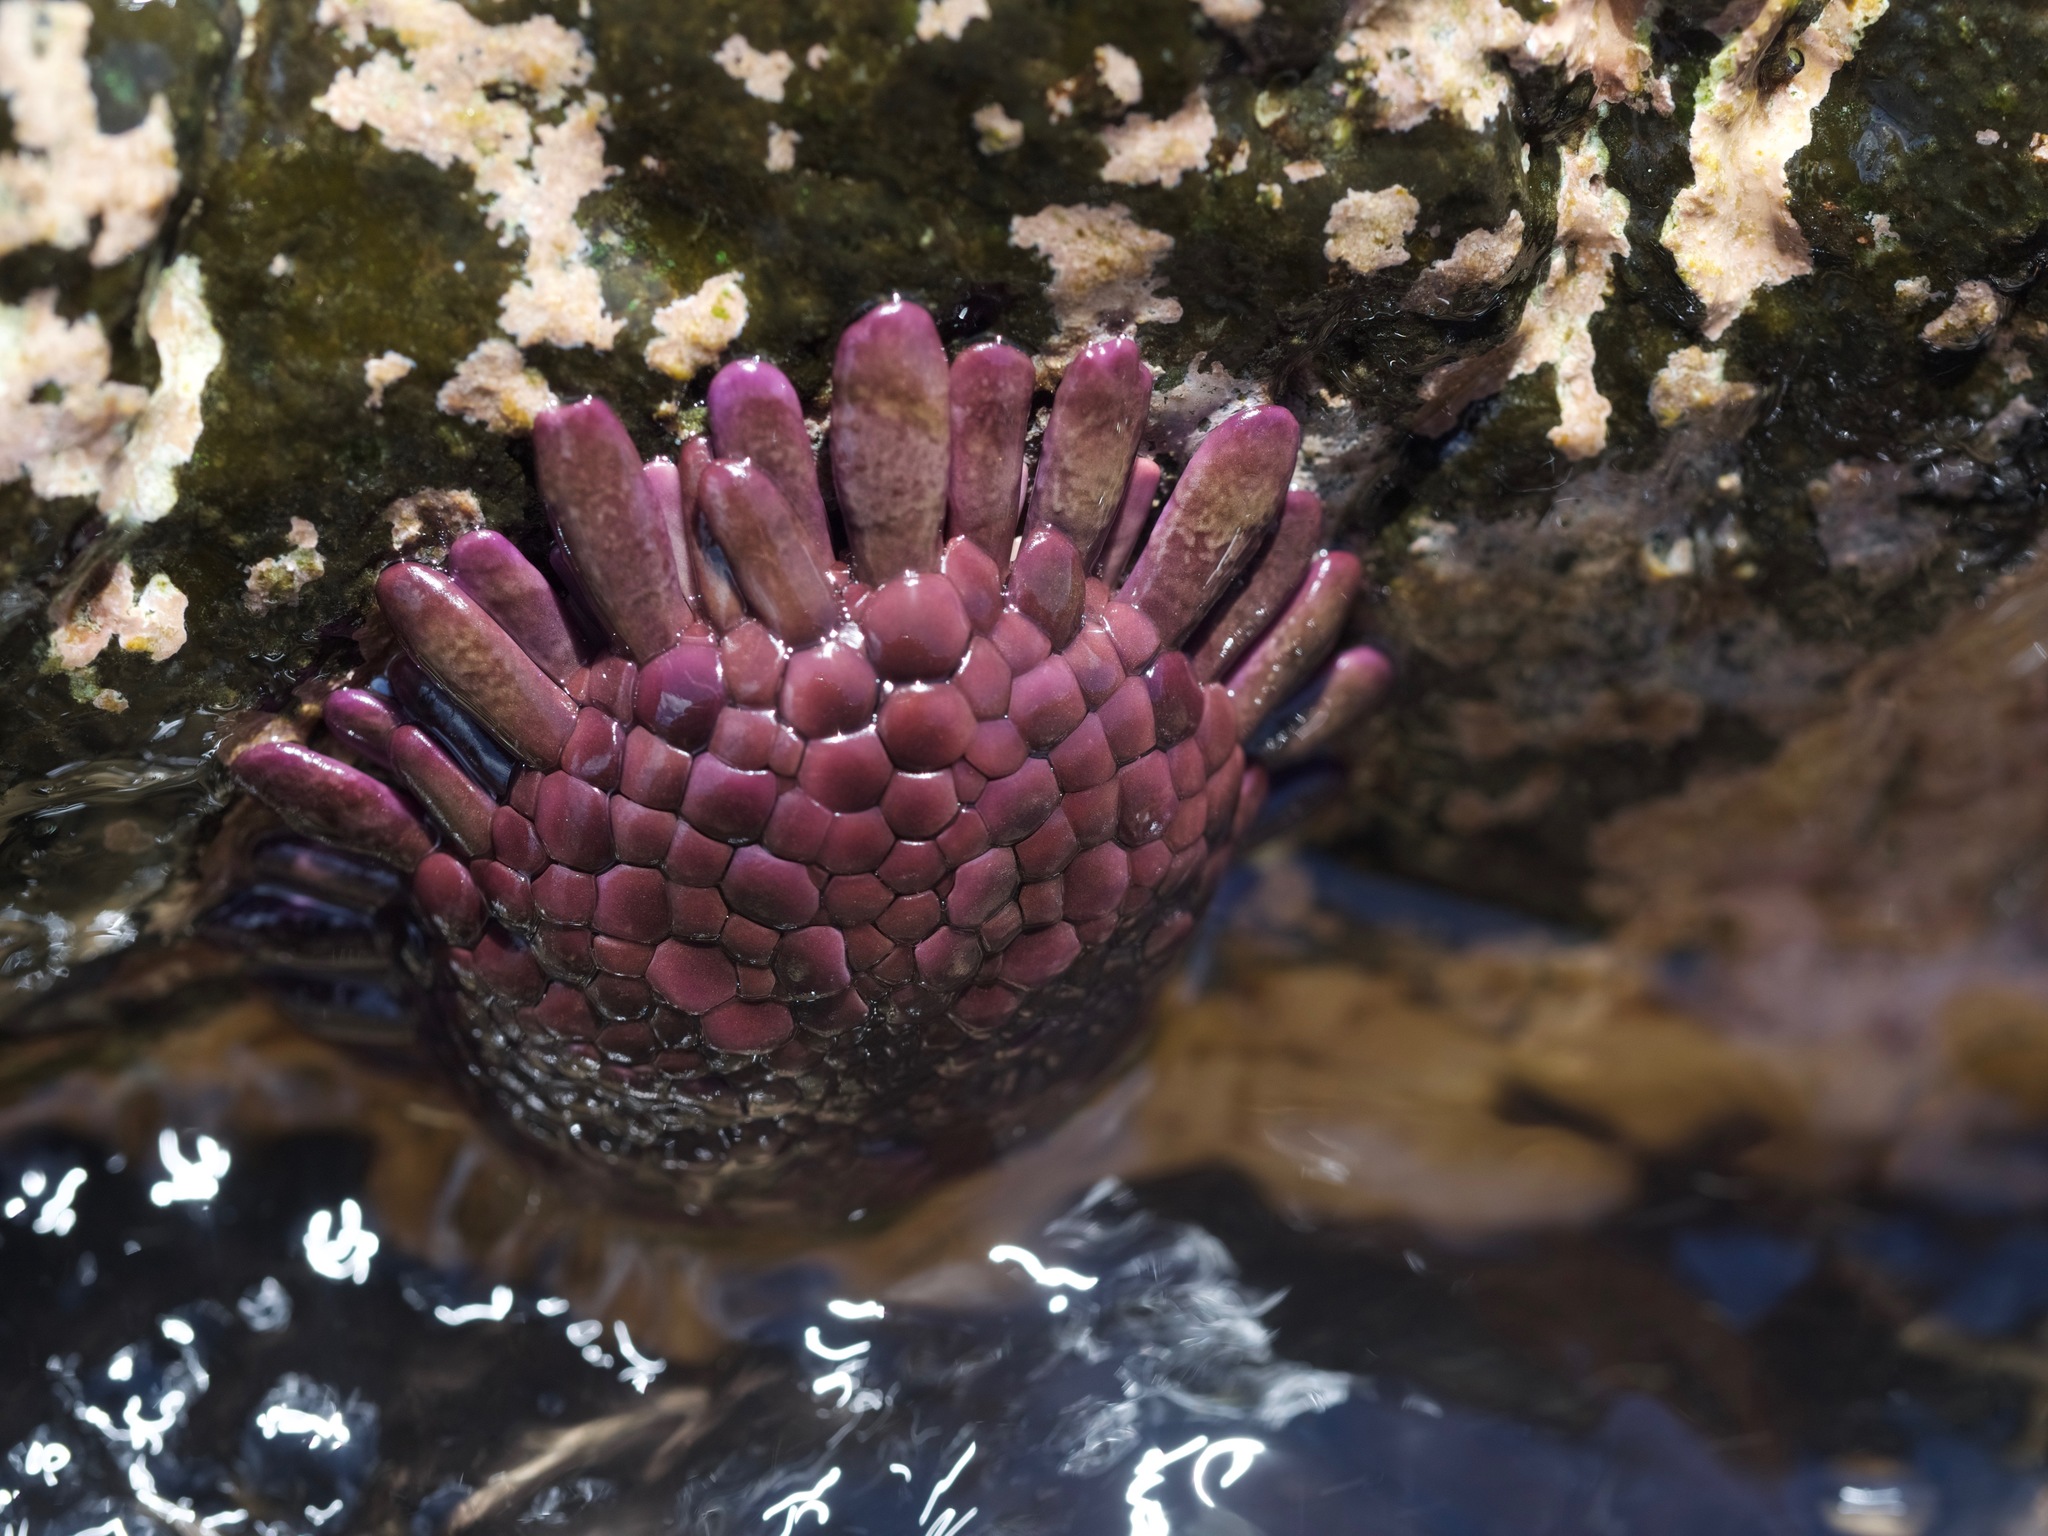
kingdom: Animalia
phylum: Echinodermata
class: Echinoidea
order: Camarodonta
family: Echinometridae
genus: Colobocentrotus
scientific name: Colobocentrotus atratus
